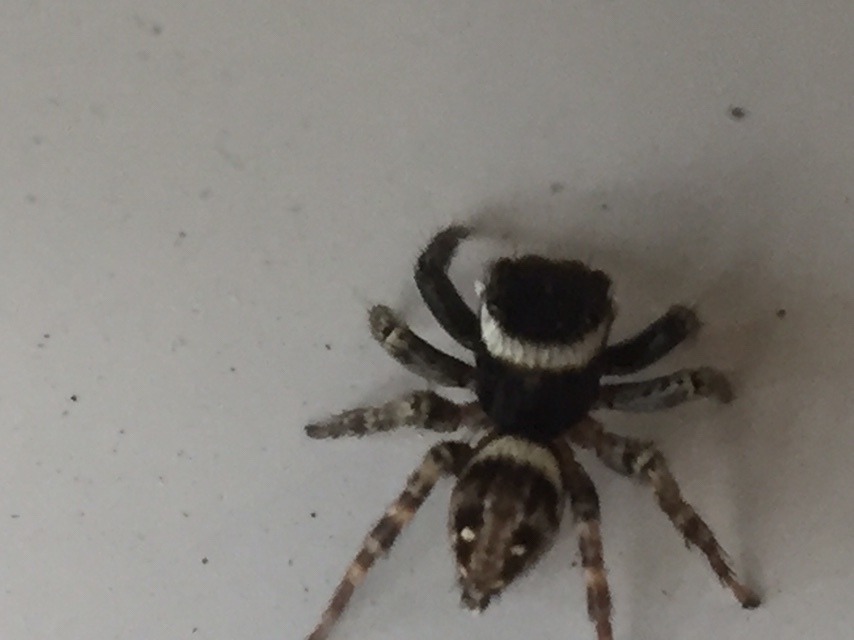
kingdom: Animalia
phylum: Arthropoda
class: Arachnida
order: Araneae
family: Salticidae
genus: Hasarius
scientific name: Hasarius adansoni
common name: Jumping spider
